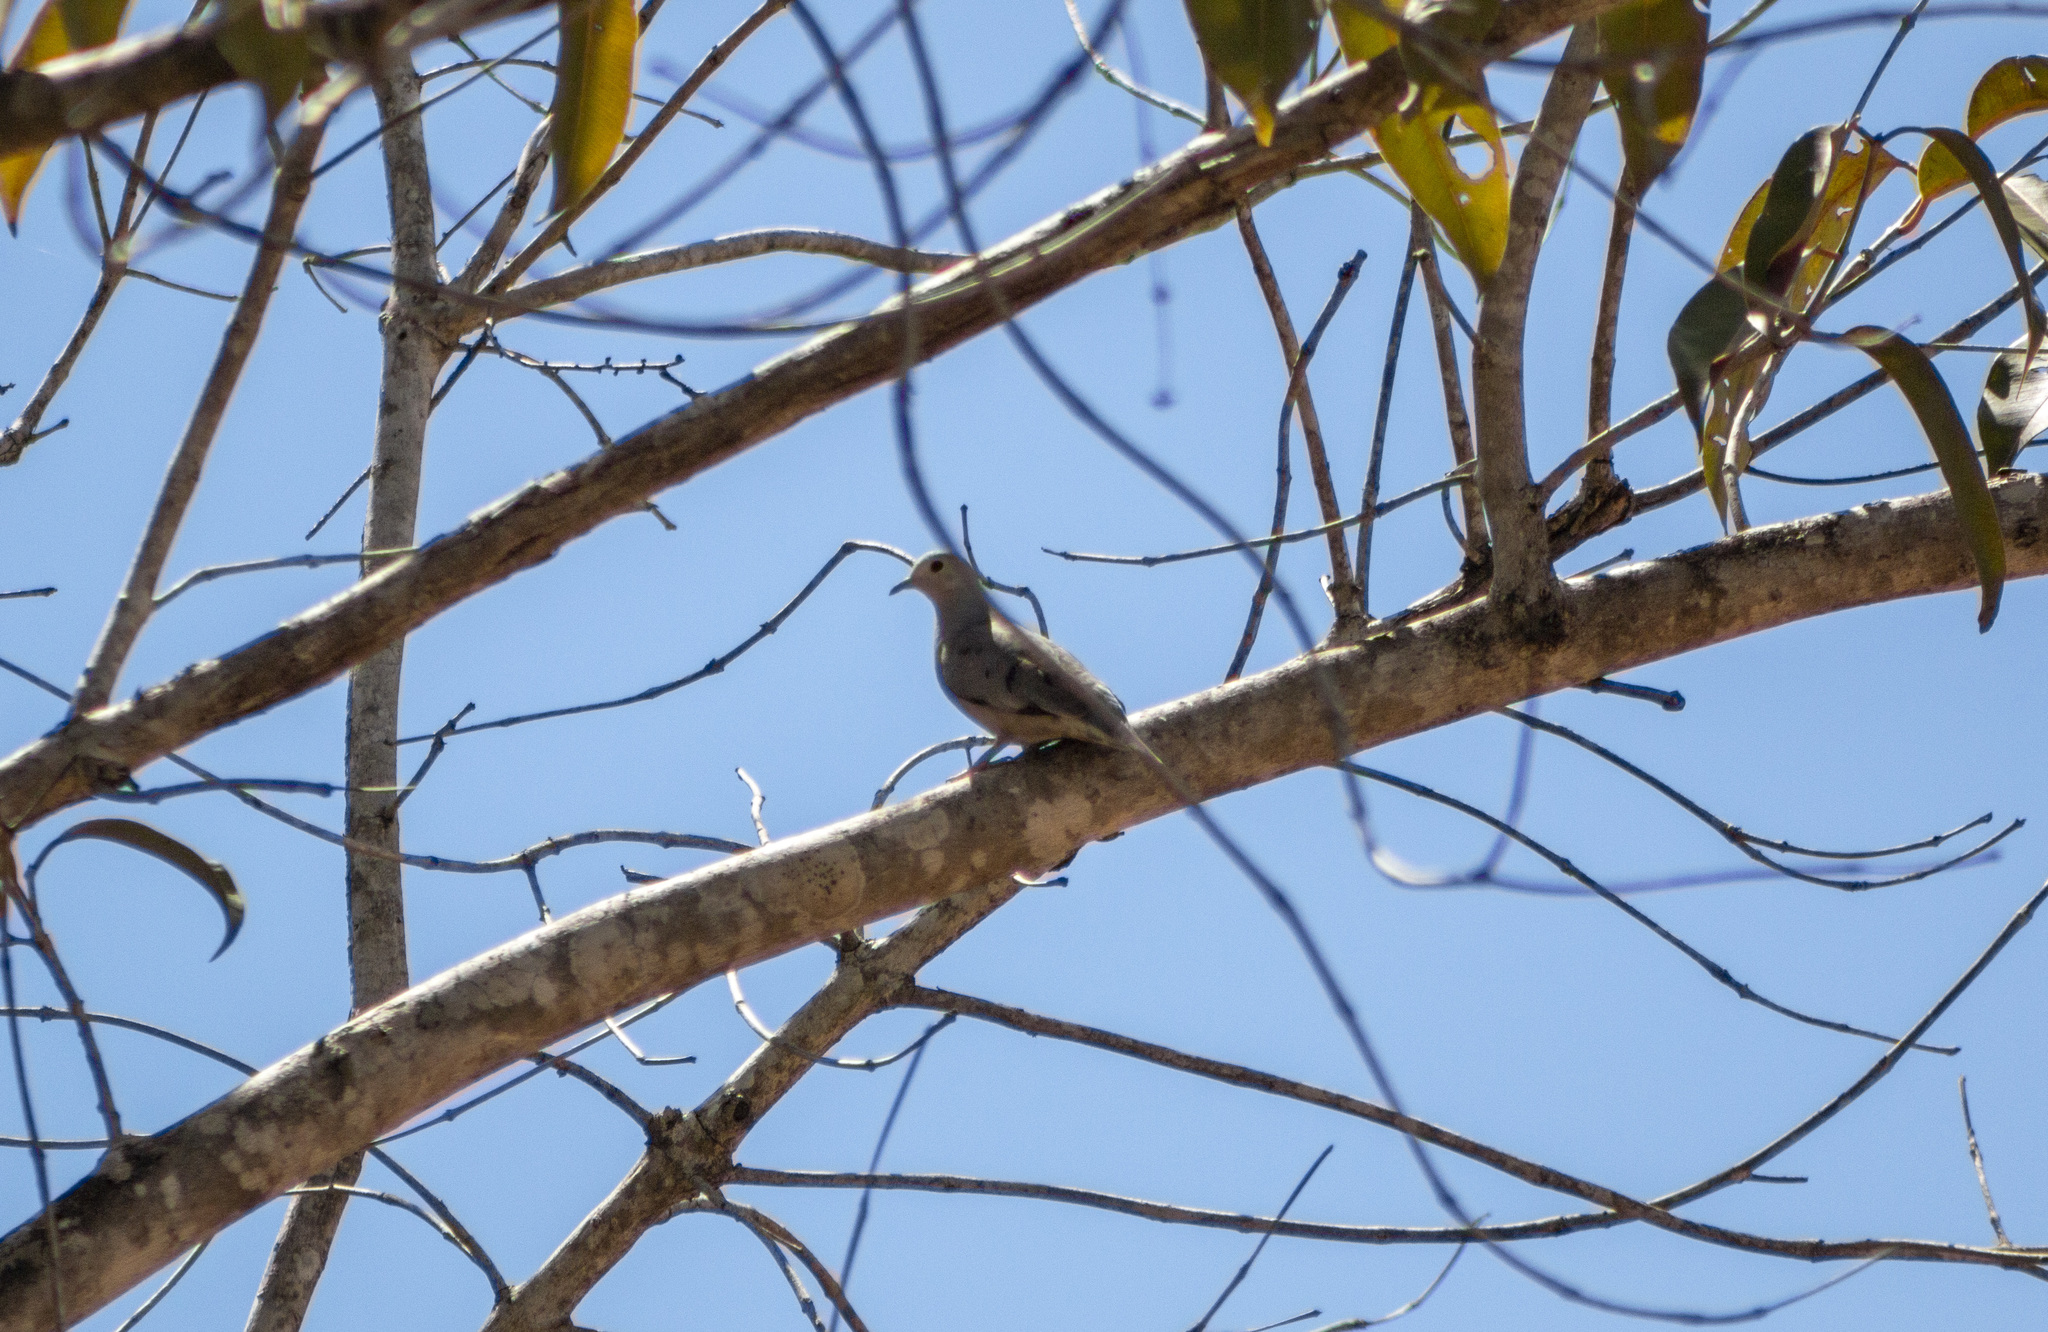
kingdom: Animalia
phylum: Chordata
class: Aves
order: Columbiformes
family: Columbidae
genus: Columbina
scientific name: Columbina minuta
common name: Plain-breasted ground dove
